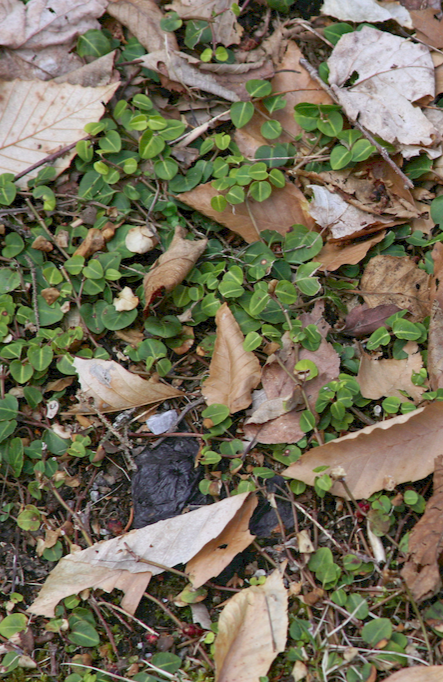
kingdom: Plantae
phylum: Tracheophyta
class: Magnoliopsida
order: Gentianales
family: Rubiaceae
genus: Mitchella
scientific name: Mitchella repens
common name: Partridge-berry
